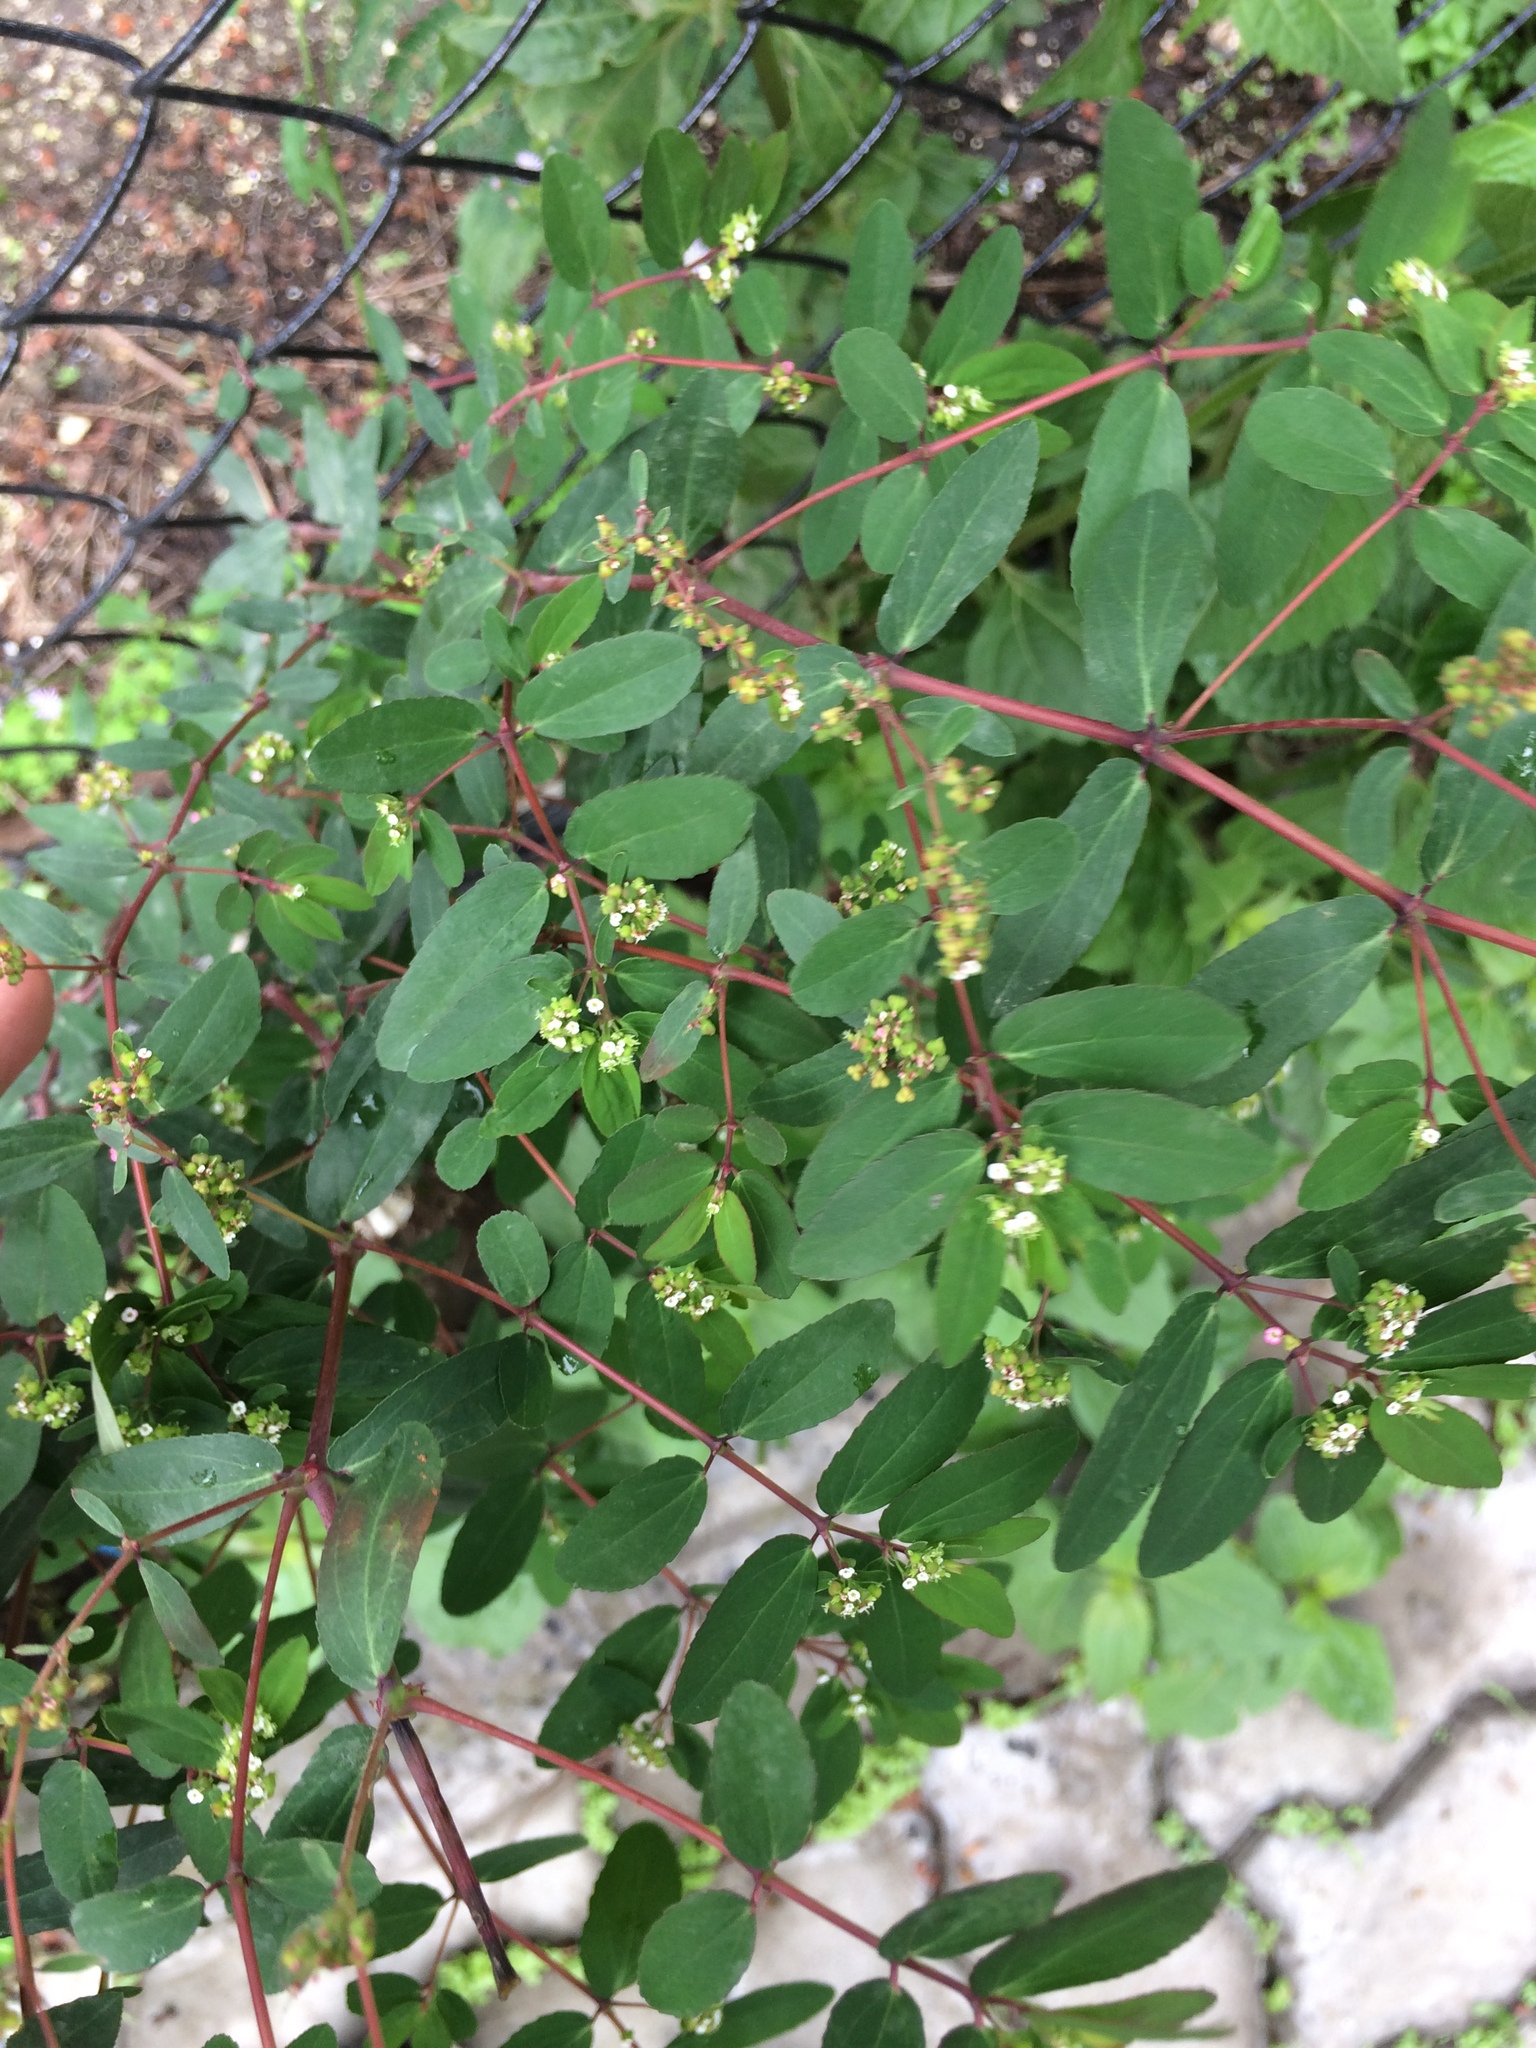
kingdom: Plantae
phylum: Tracheophyta
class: Magnoliopsida
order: Malpighiales
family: Euphorbiaceae
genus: Euphorbia
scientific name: Euphorbia hypericifolia
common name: Graceful sandmat
